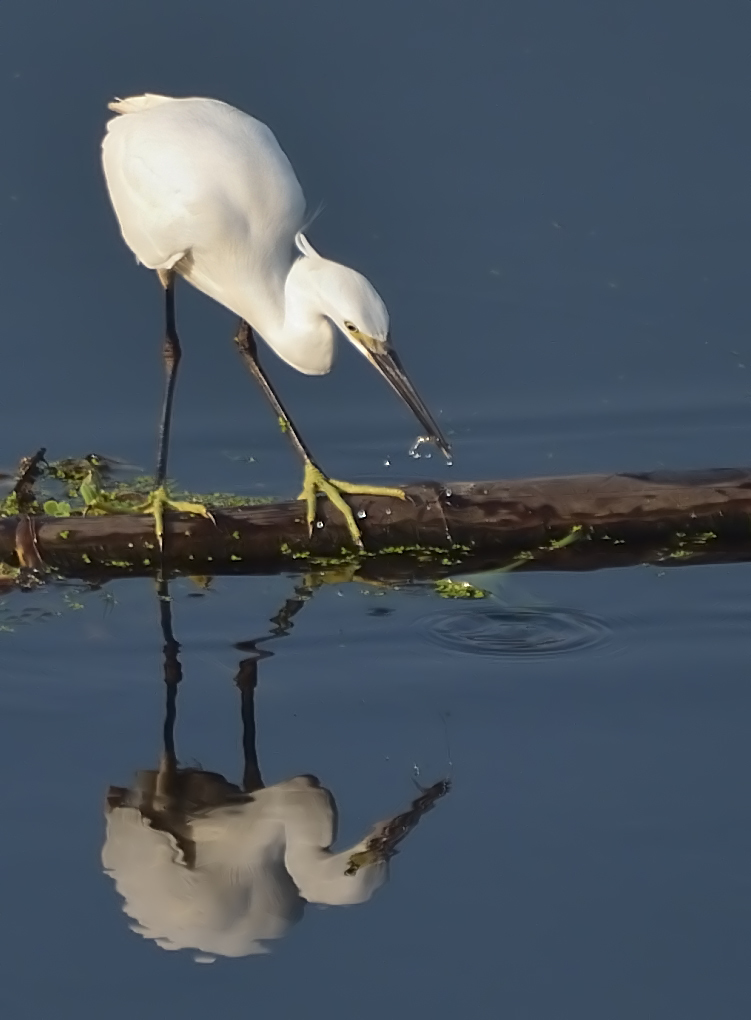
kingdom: Animalia
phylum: Chordata
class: Aves
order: Pelecaniformes
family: Ardeidae
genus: Egretta
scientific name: Egretta garzetta
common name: Little egret
